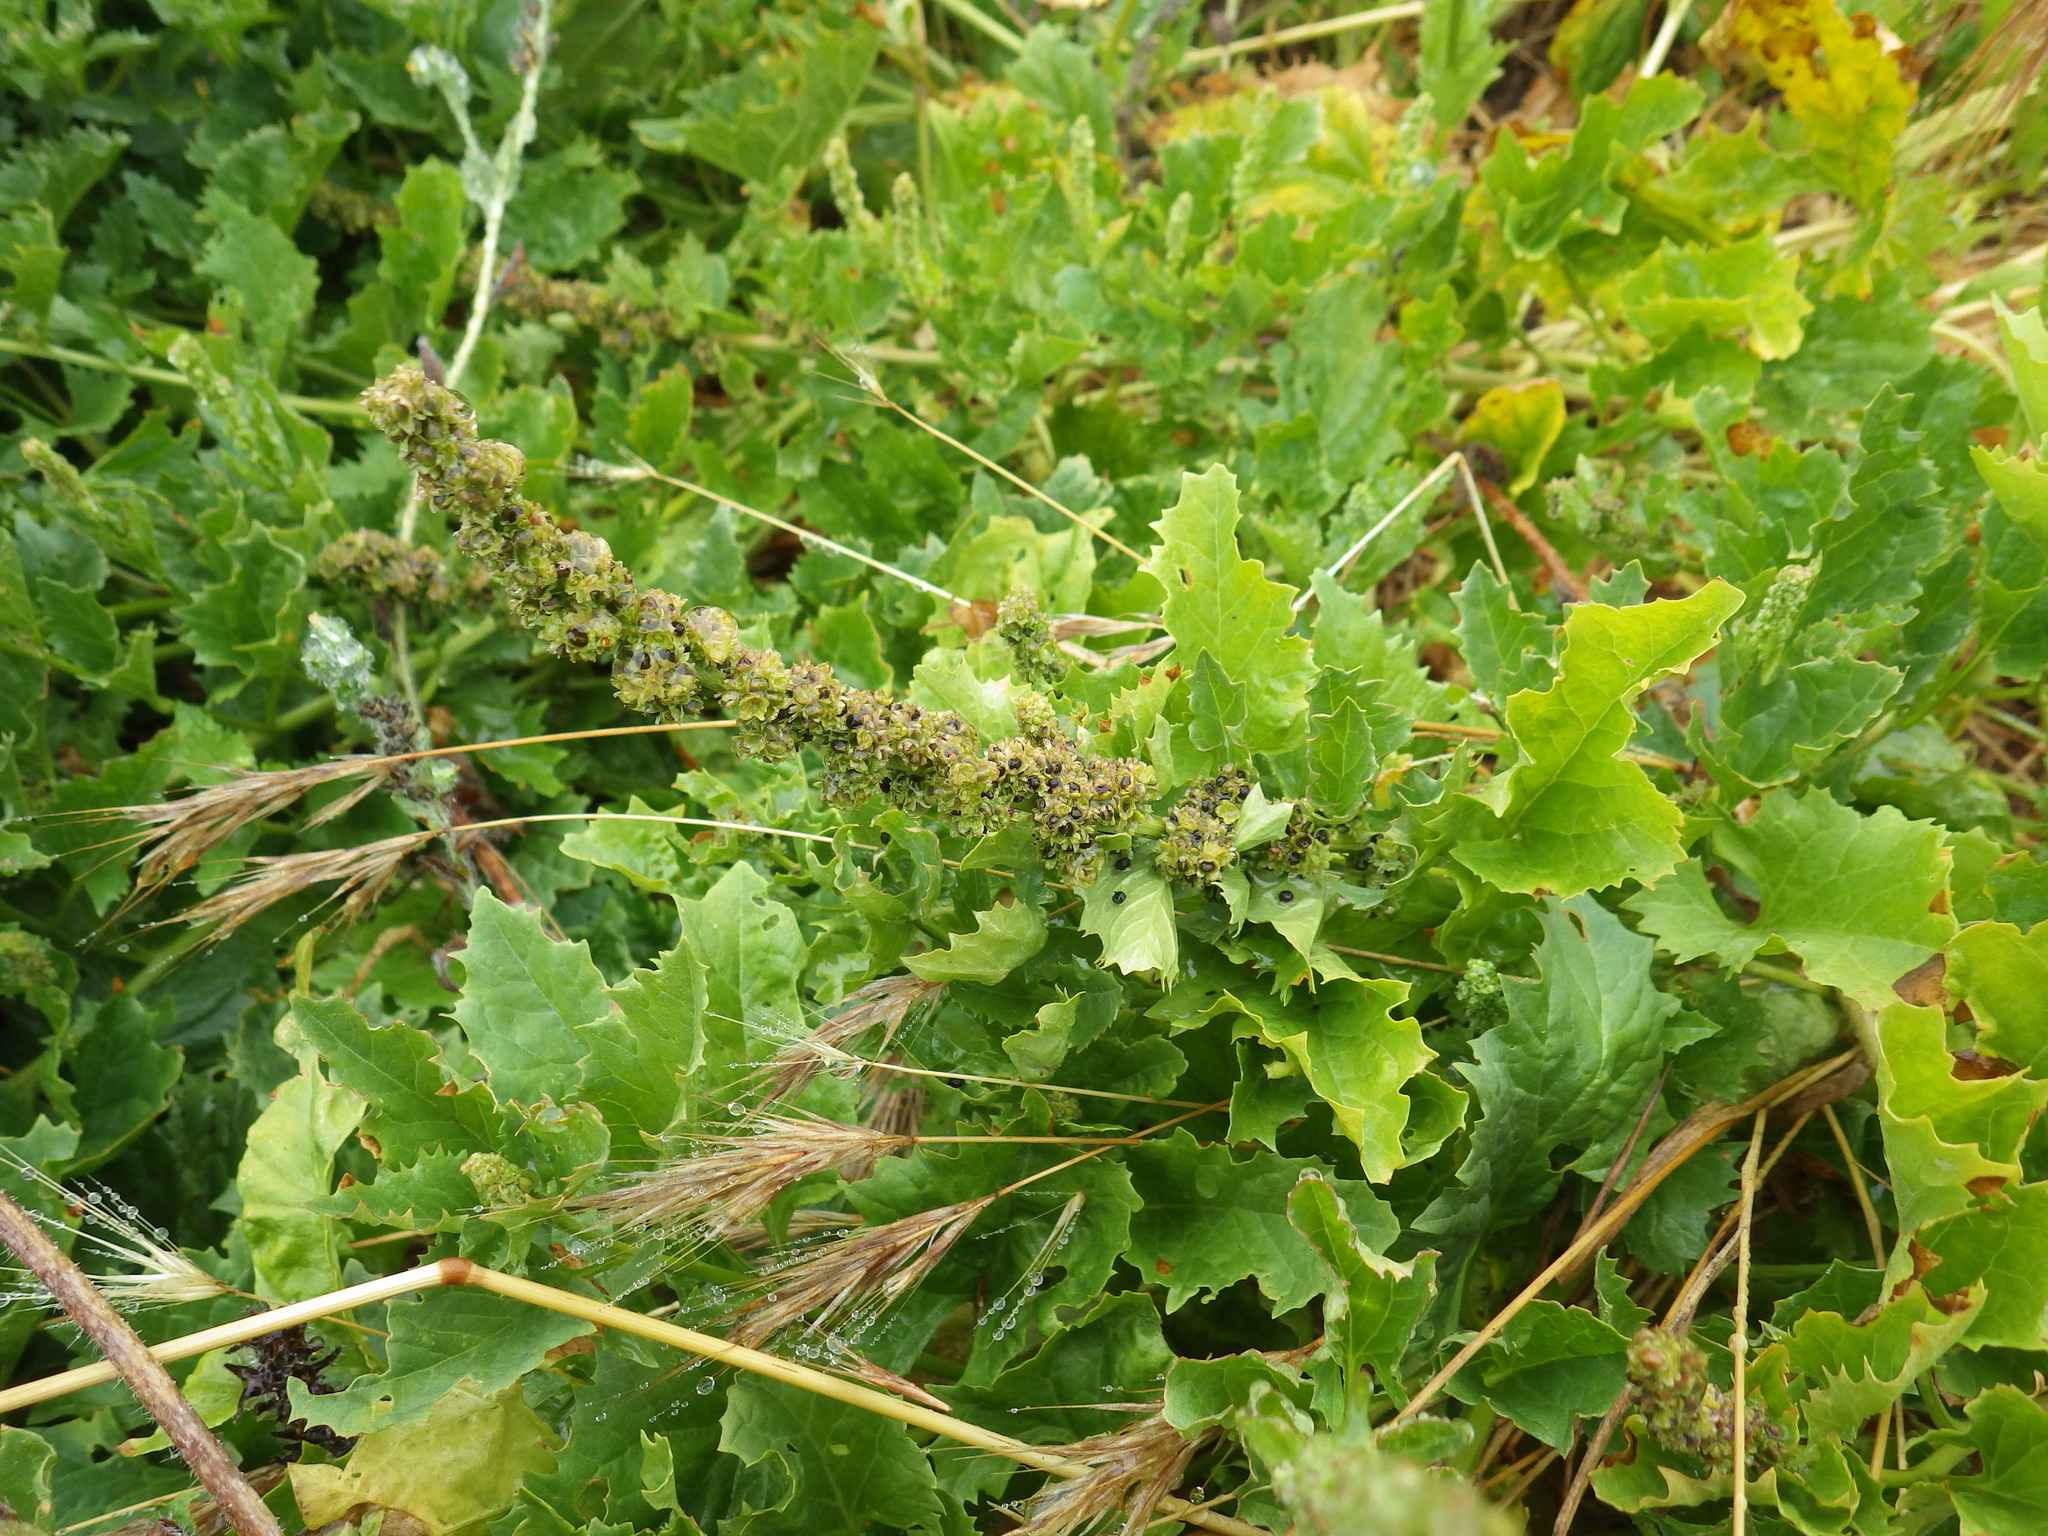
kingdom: Plantae
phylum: Tracheophyta
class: Magnoliopsida
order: Caryophyllales
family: Amaranthaceae
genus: Blitum
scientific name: Blitum californicum
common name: California goosefoot
